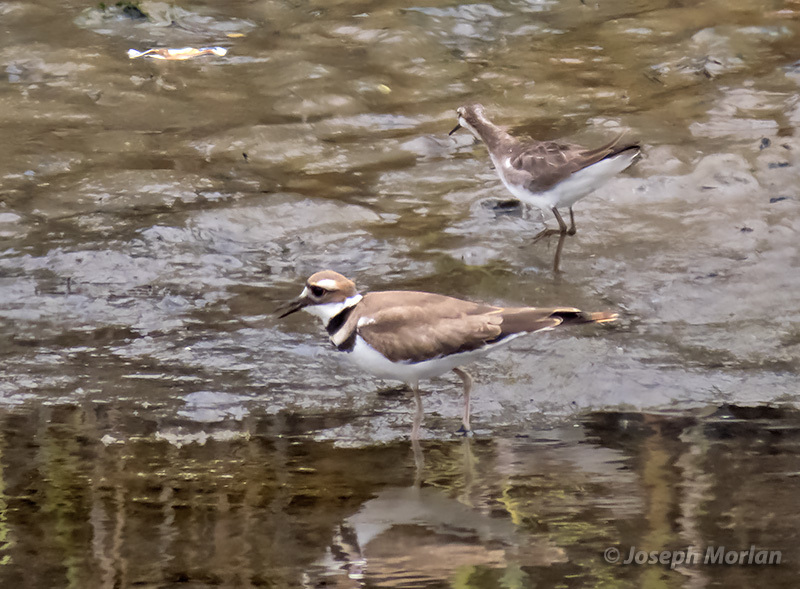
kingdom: Animalia
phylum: Chordata
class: Aves
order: Charadriiformes
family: Charadriidae
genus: Charadrius
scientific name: Charadrius vociferus
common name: Killdeer
